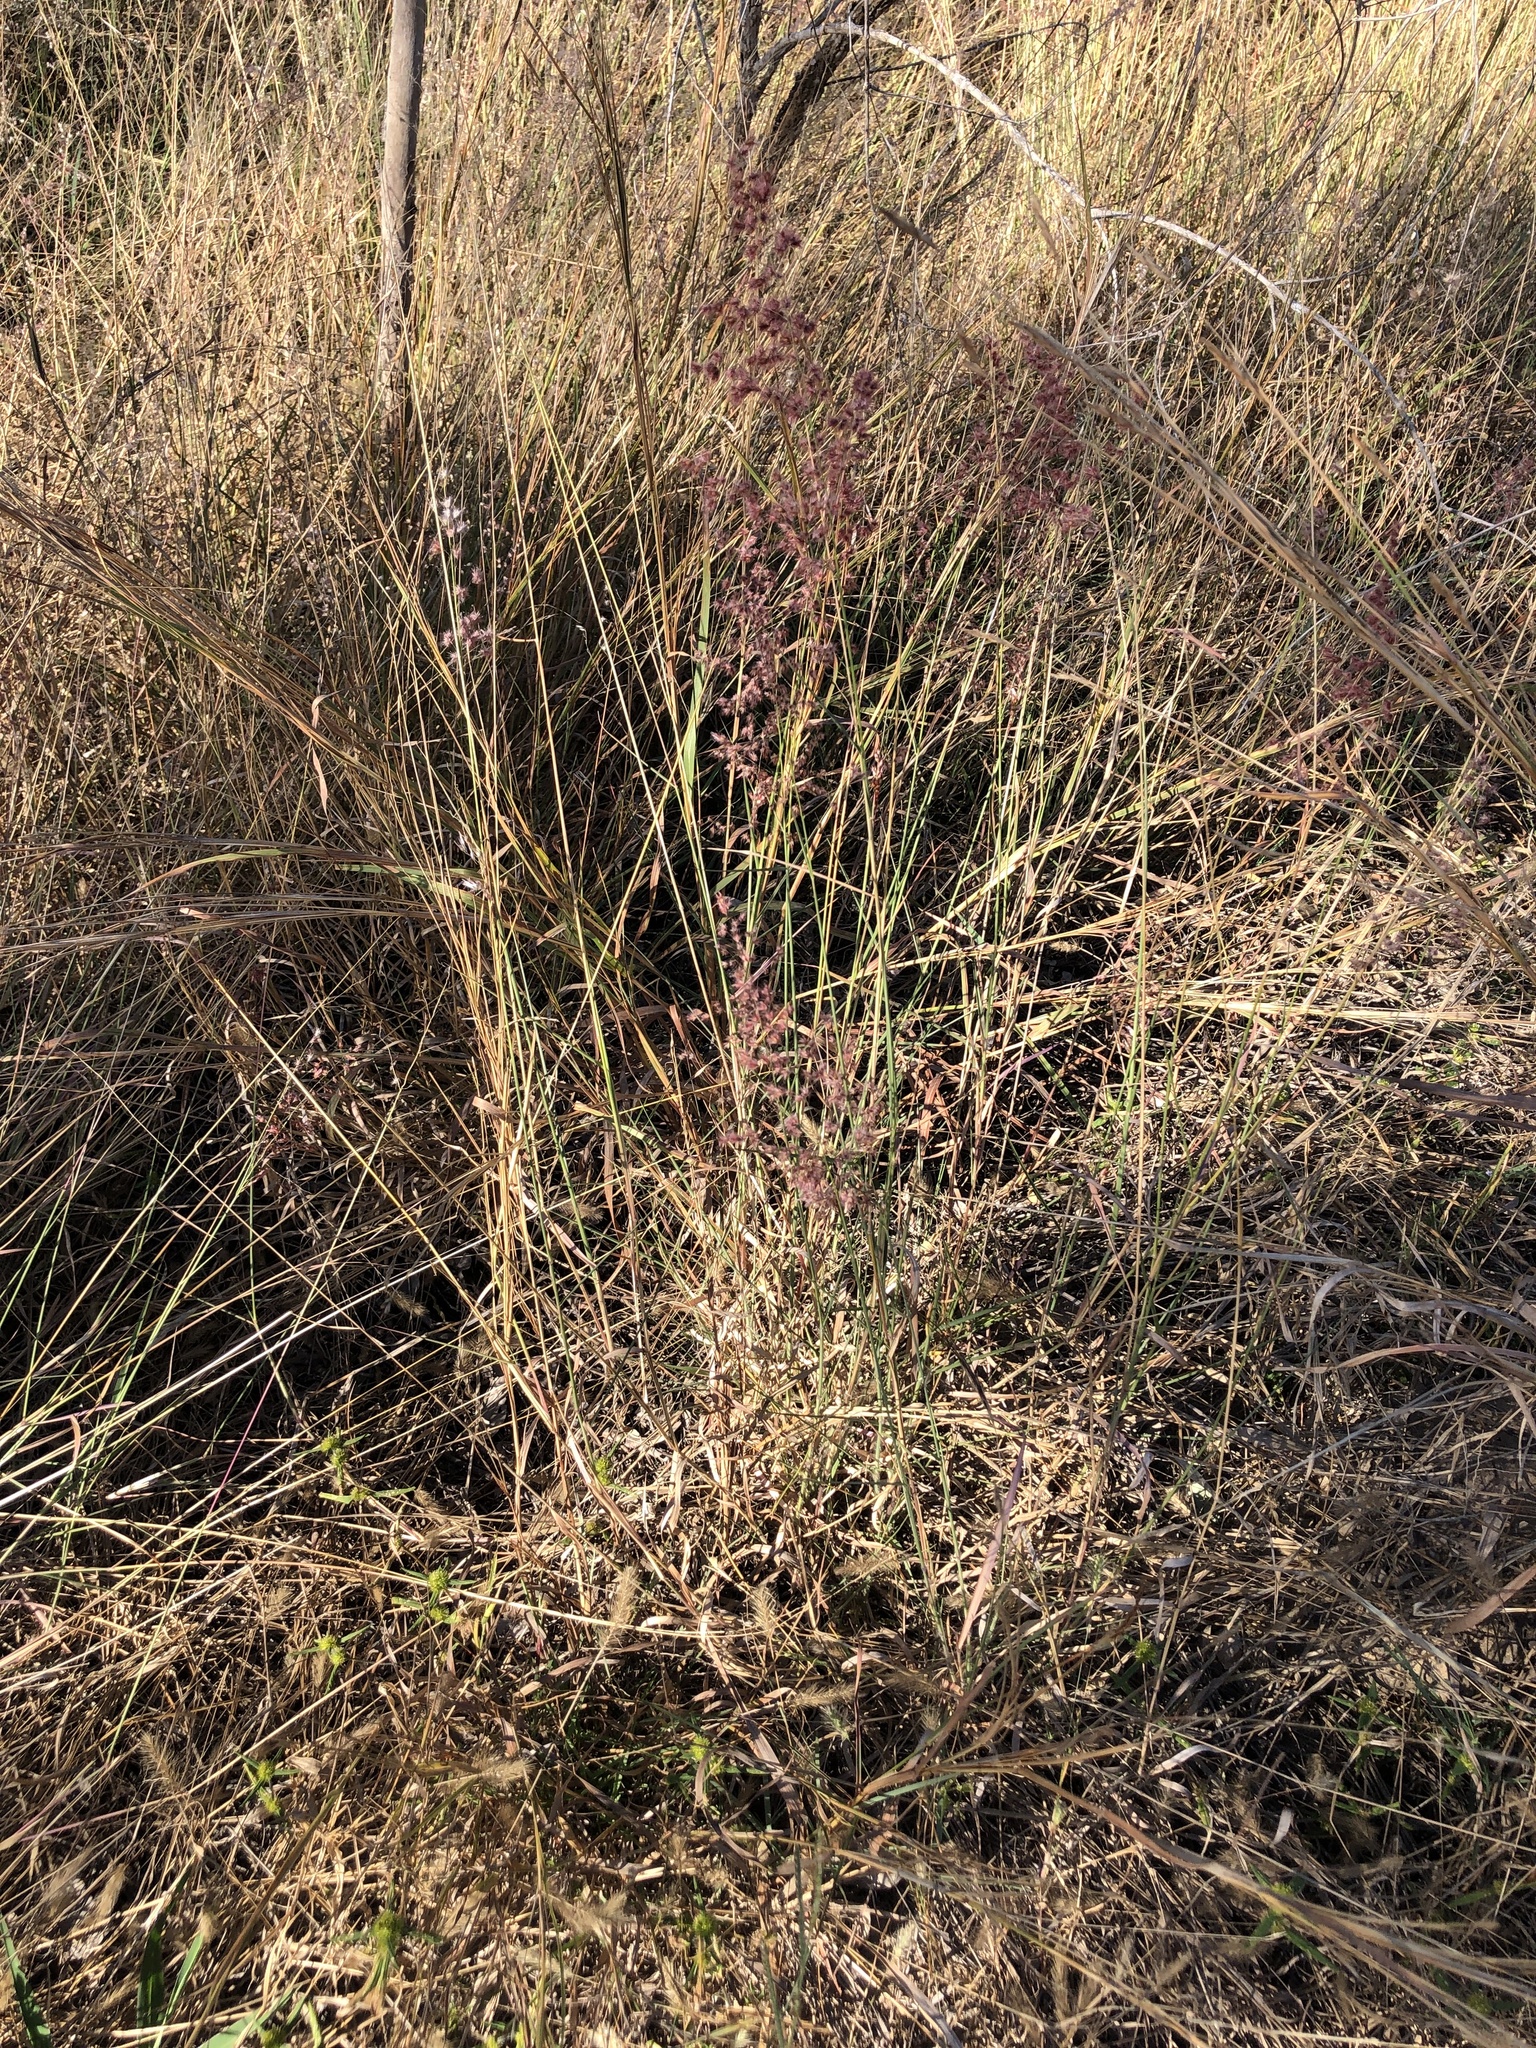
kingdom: Plantae
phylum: Tracheophyta
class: Liliopsida
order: Poales
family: Poaceae
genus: Melinis
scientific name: Melinis repens
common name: Rose natal grass
